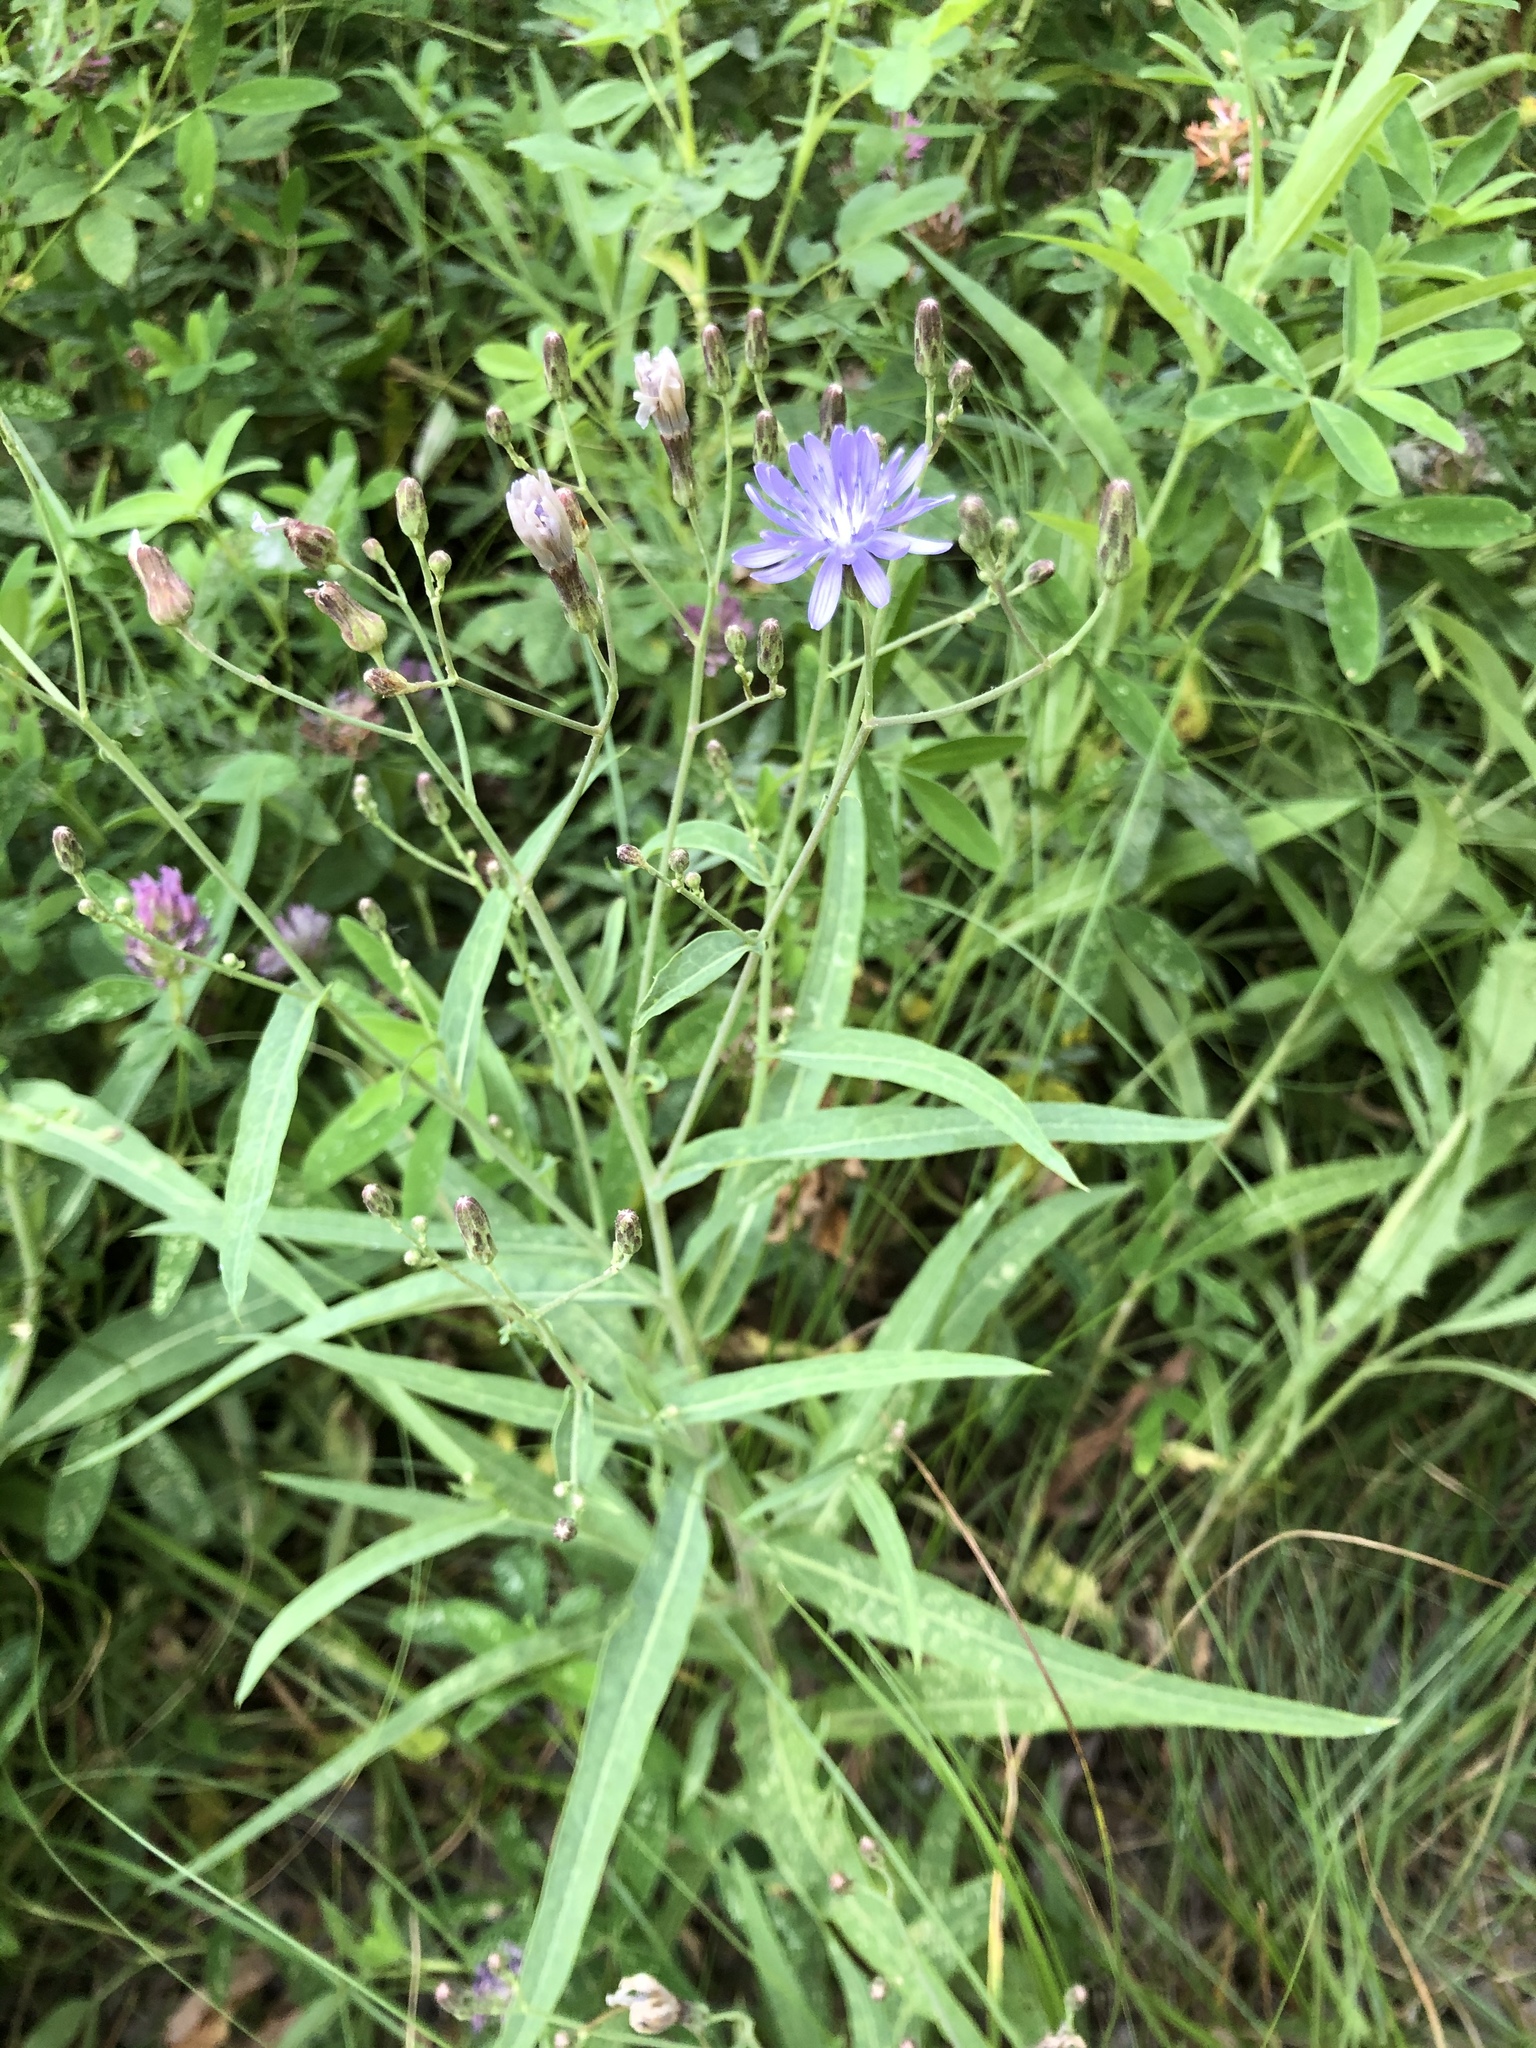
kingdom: Plantae
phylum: Tracheophyta
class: Magnoliopsida
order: Asterales
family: Asteraceae
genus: Lactuca
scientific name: Lactuca tatarica
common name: Blue lettuce
